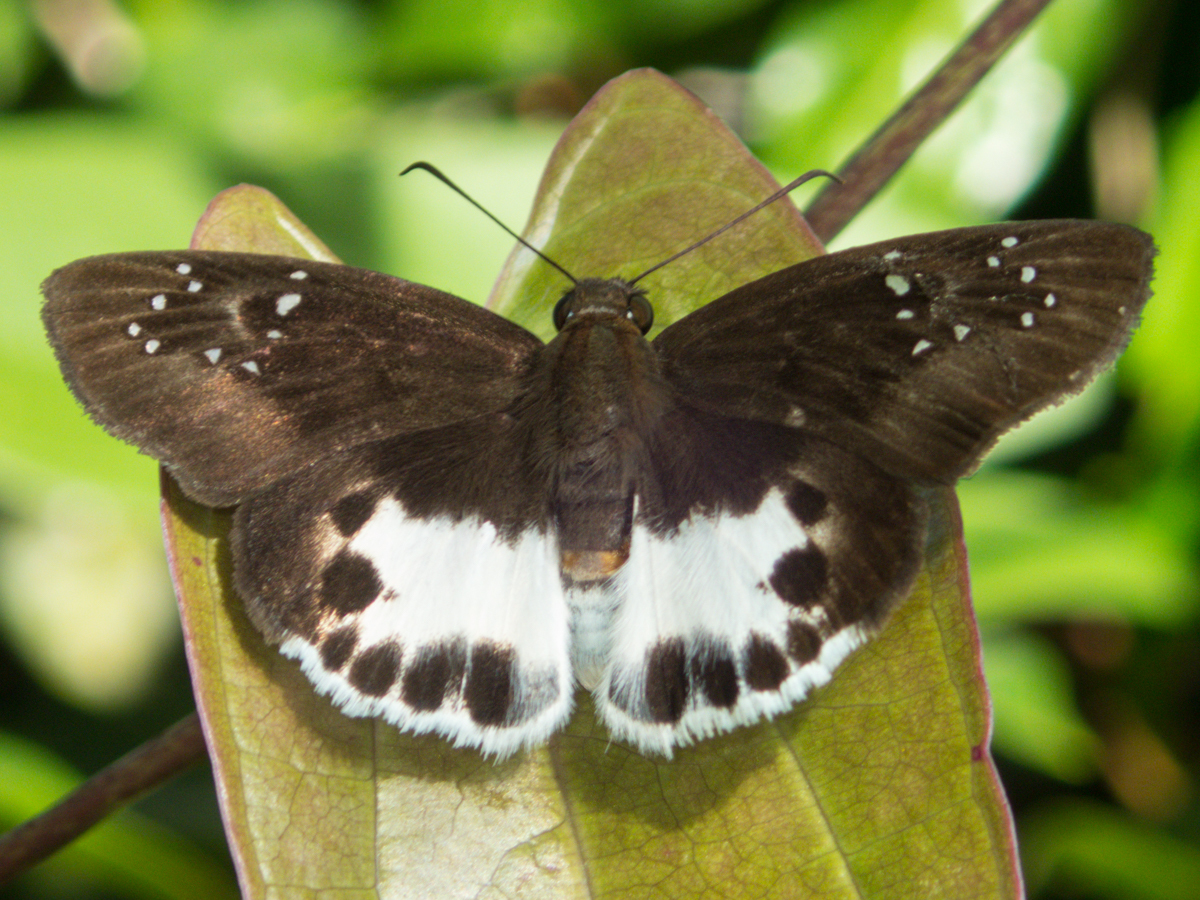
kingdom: Animalia
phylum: Arthropoda
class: Insecta
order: Lepidoptera
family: Hesperiidae
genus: Tagiades
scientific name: Tagiades litigiosa
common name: Water snow flat
